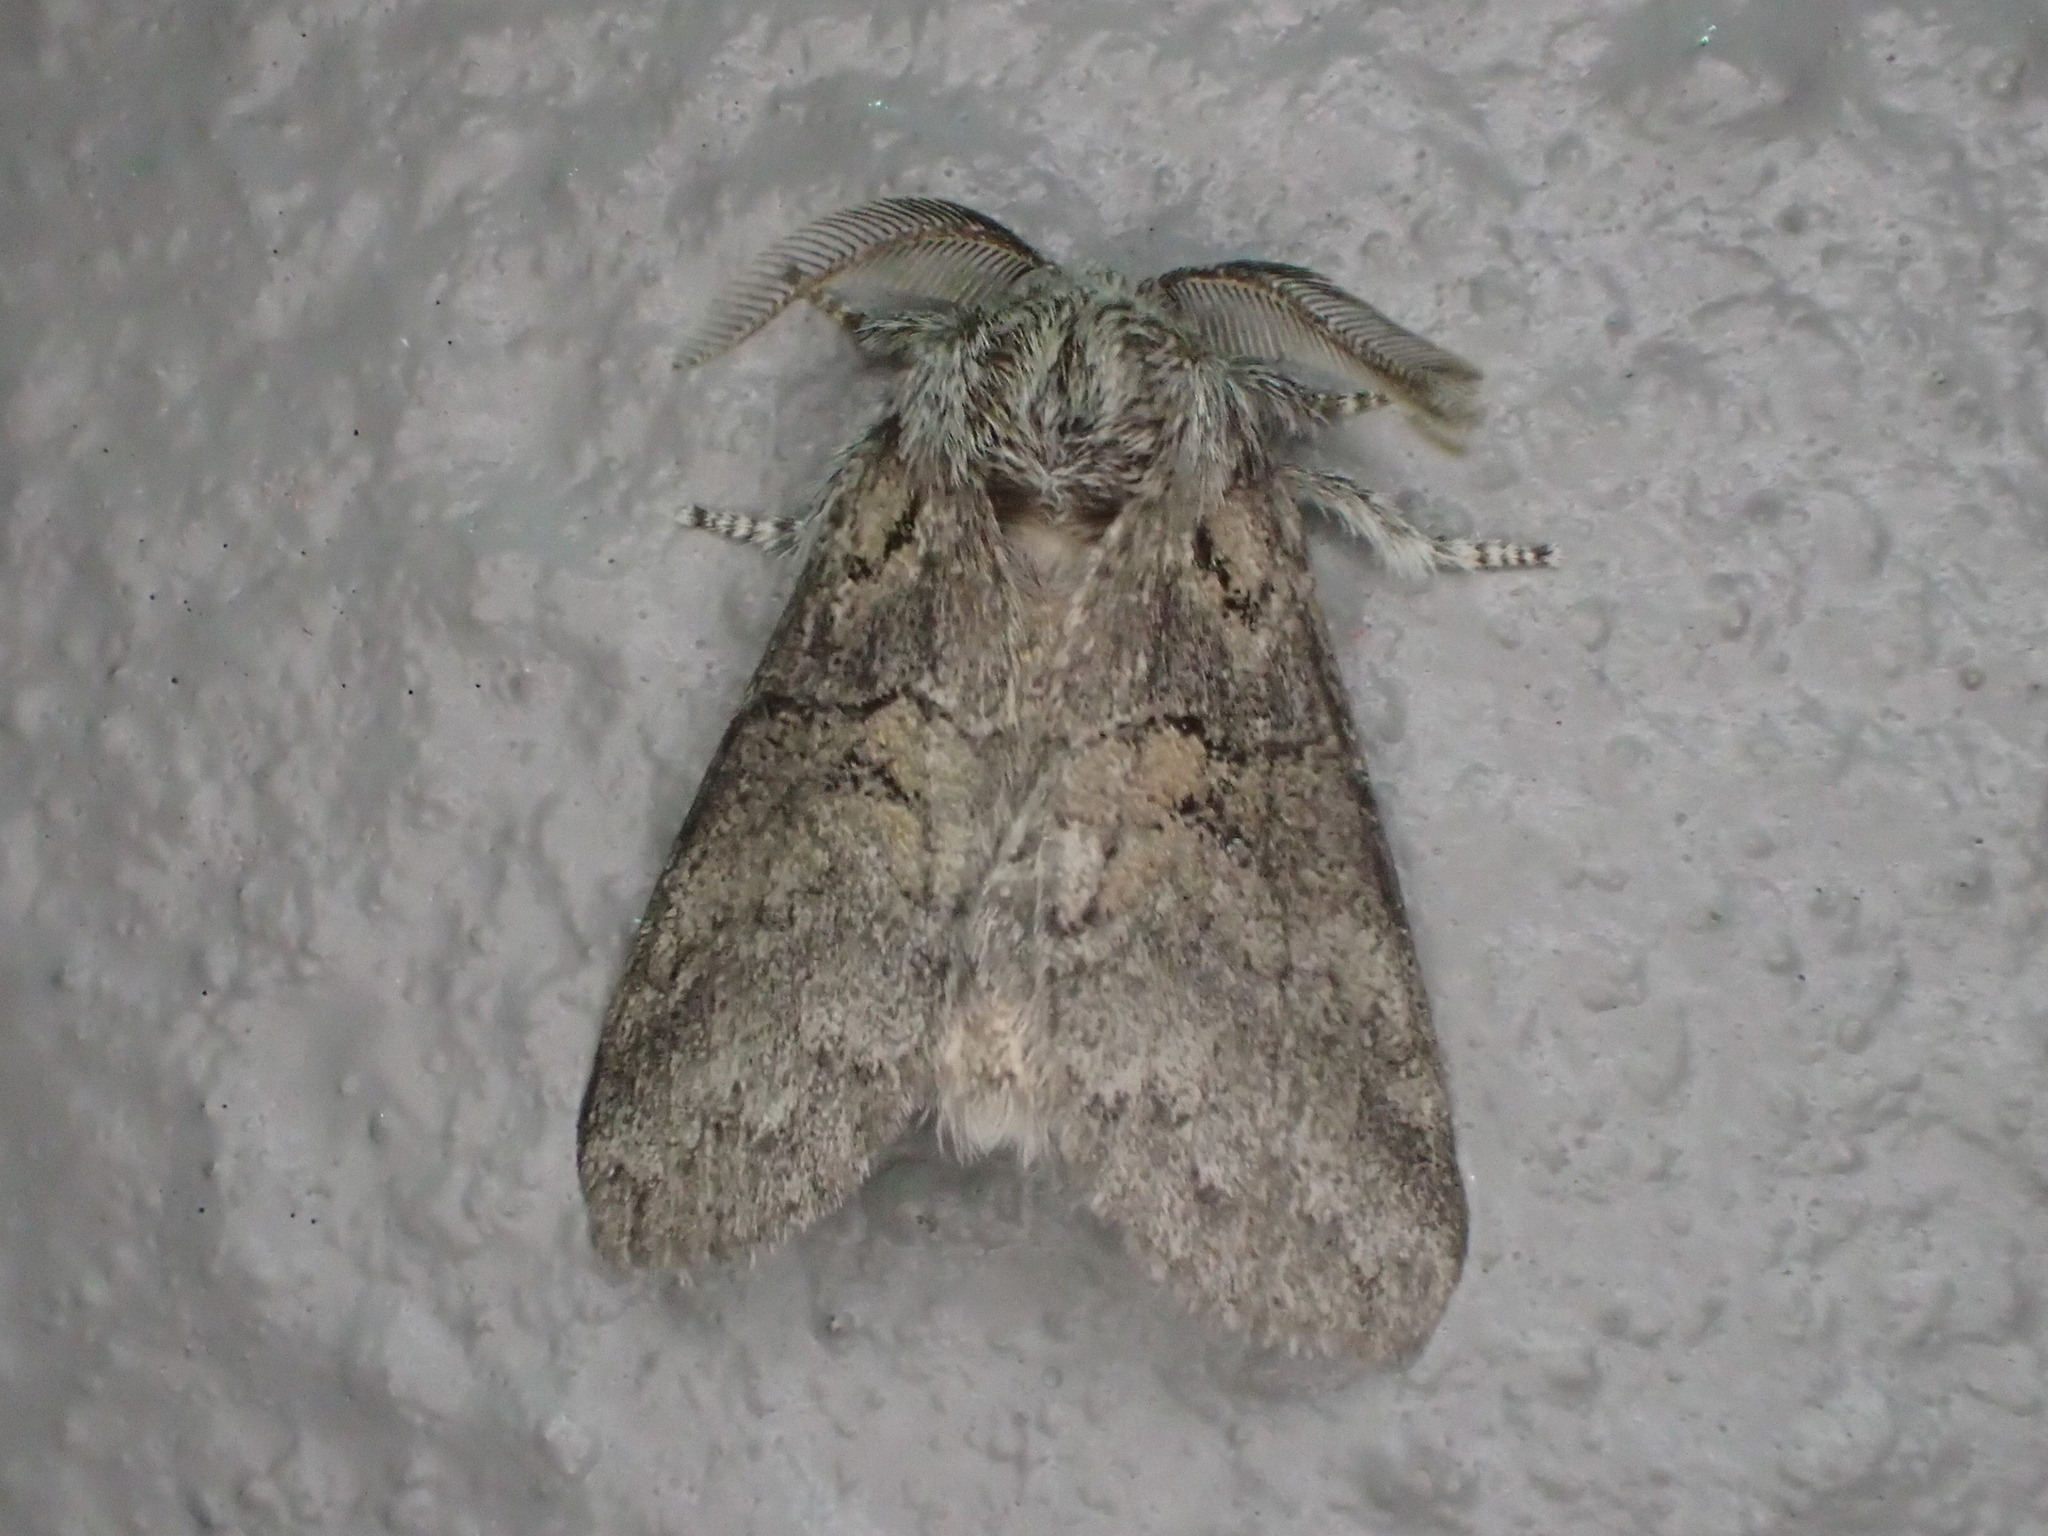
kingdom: Animalia
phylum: Arthropoda
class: Insecta
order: Lepidoptera
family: Notodontidae
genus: Gluphisia
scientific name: Gluphisia septentrionis
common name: Common gluphisia
